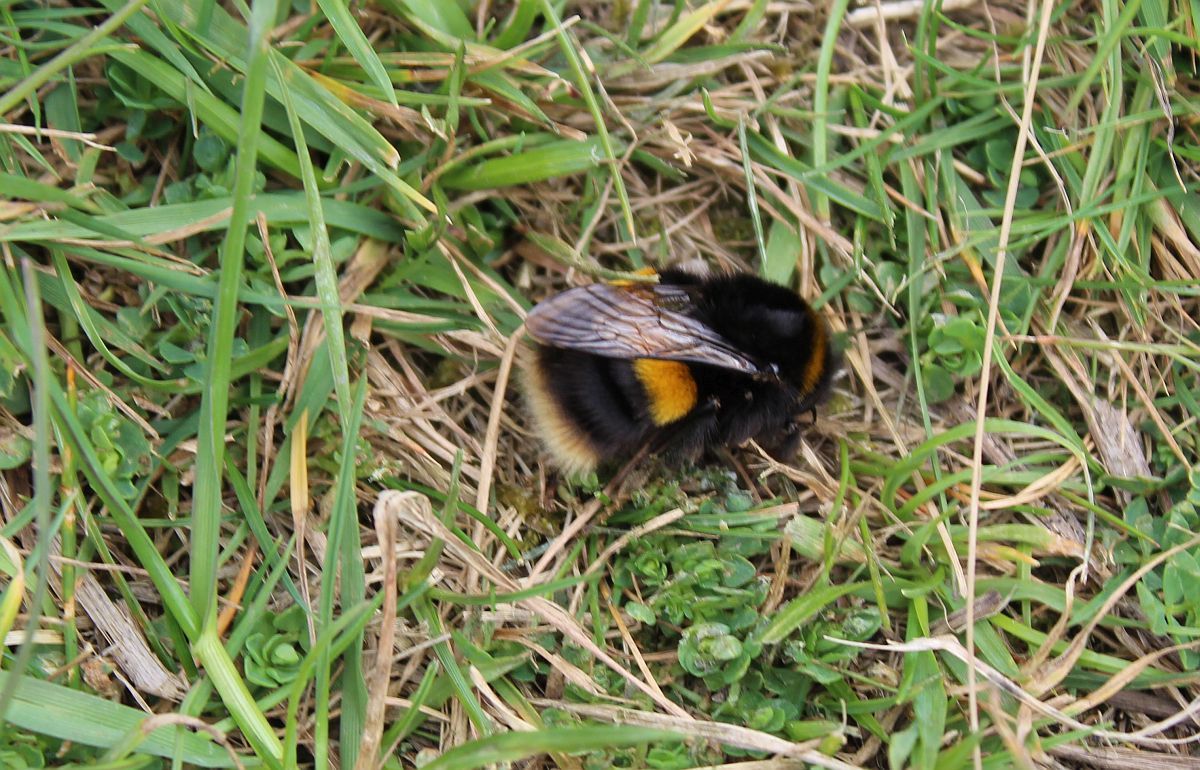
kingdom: Animalia
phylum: Arthropoda
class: Insecta
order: Hymenoptera
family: Apidae
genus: Bombus
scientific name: Bombus terrestris
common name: Buff-tailed bumblebee
